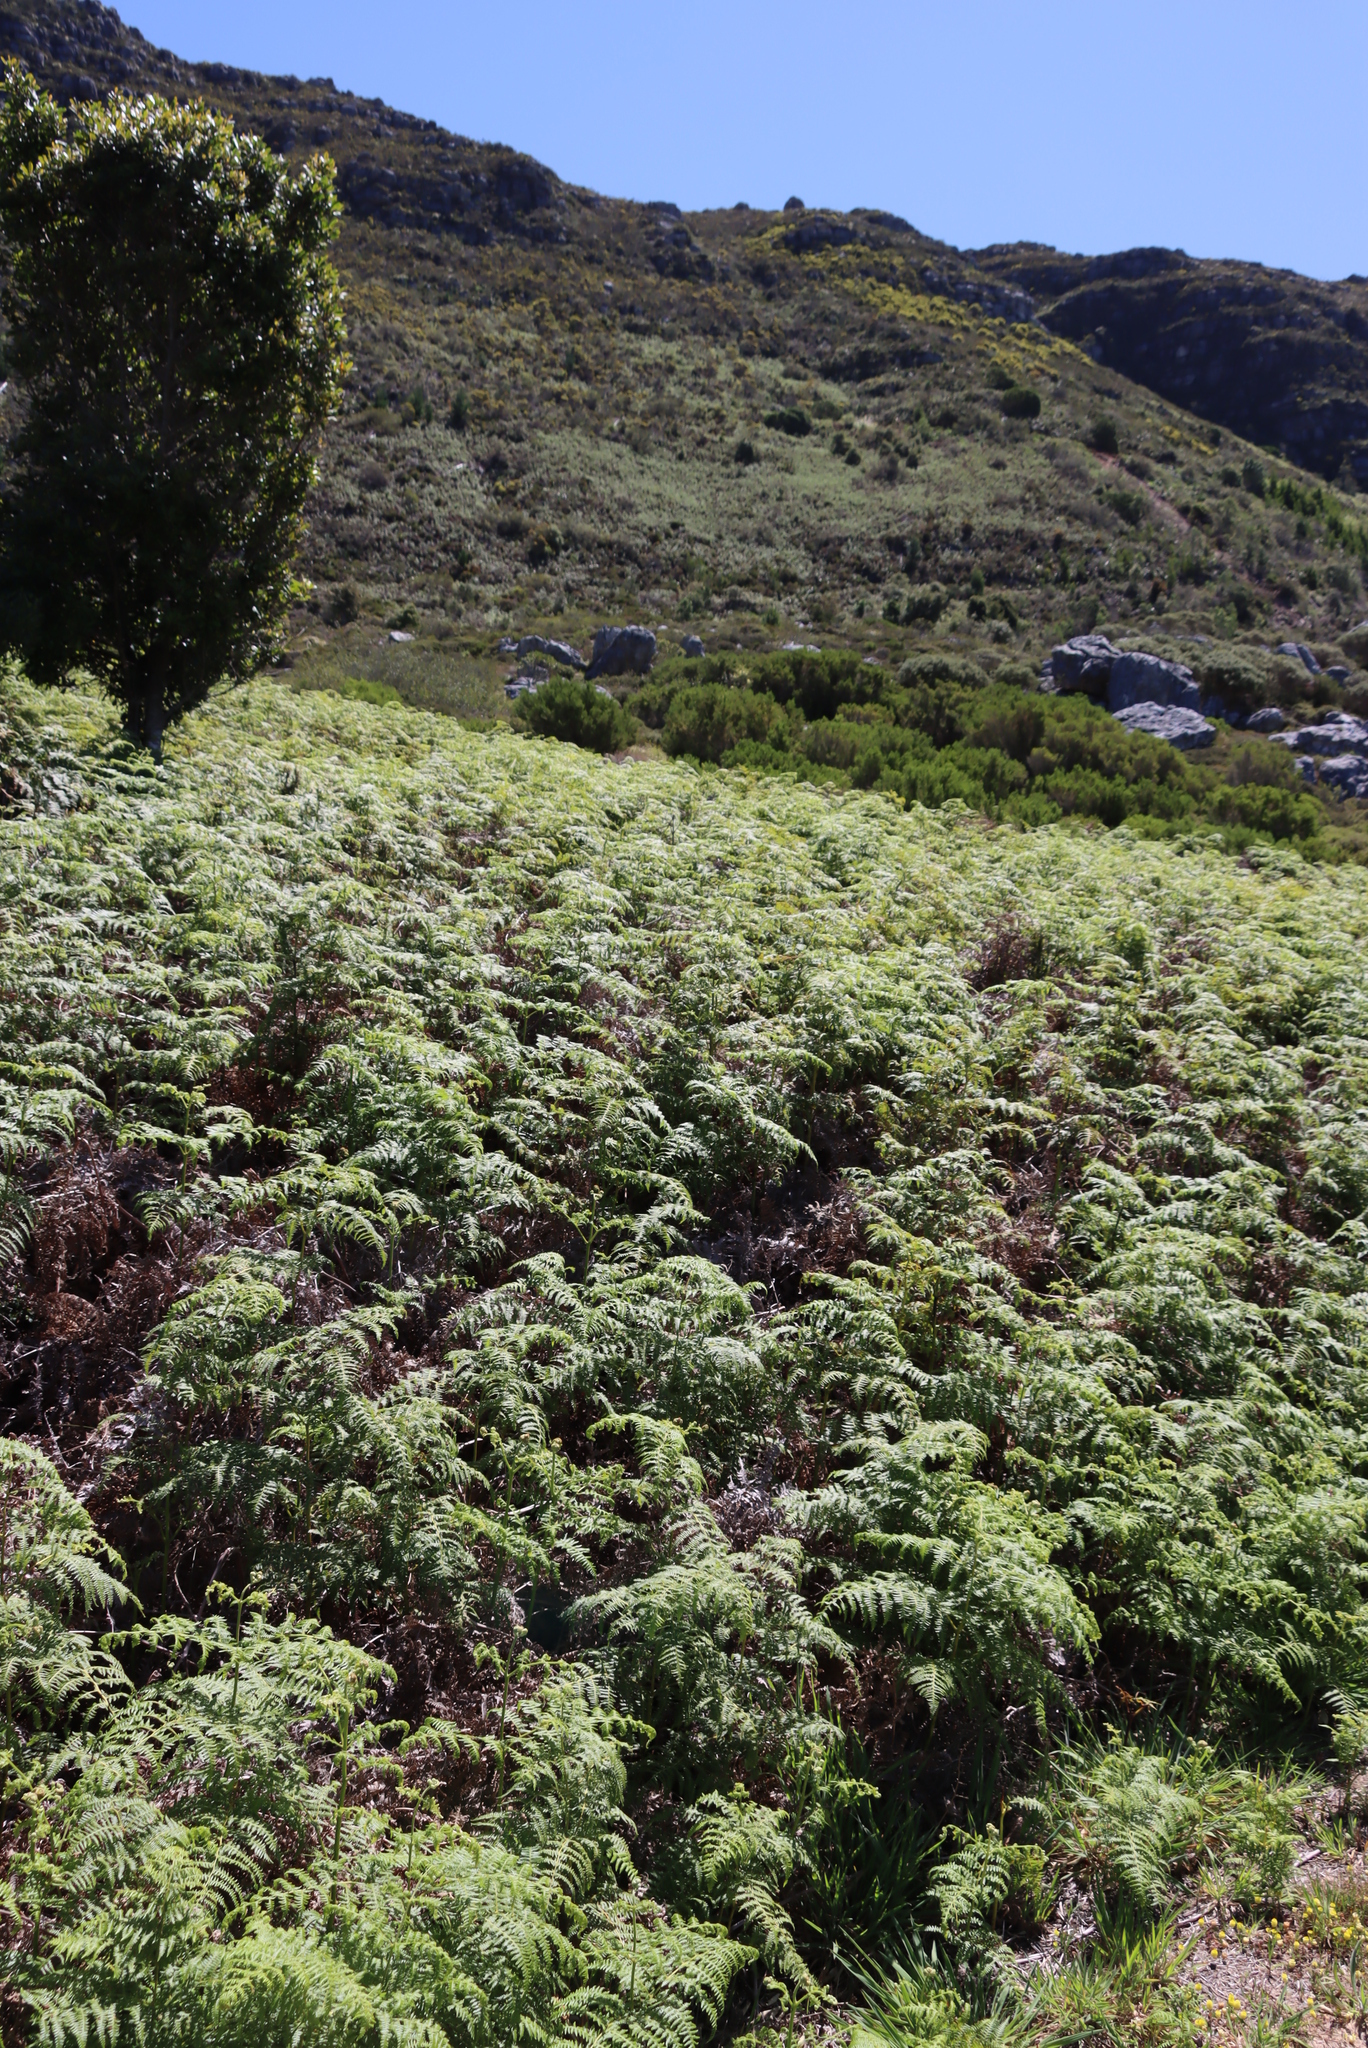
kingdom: Plantae
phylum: Tracheophyta
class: Polypodiopsida
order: Polypodiales
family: Dennstaedtiaceae
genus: Pteridium
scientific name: Pteridium aquilinum
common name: Bracken
